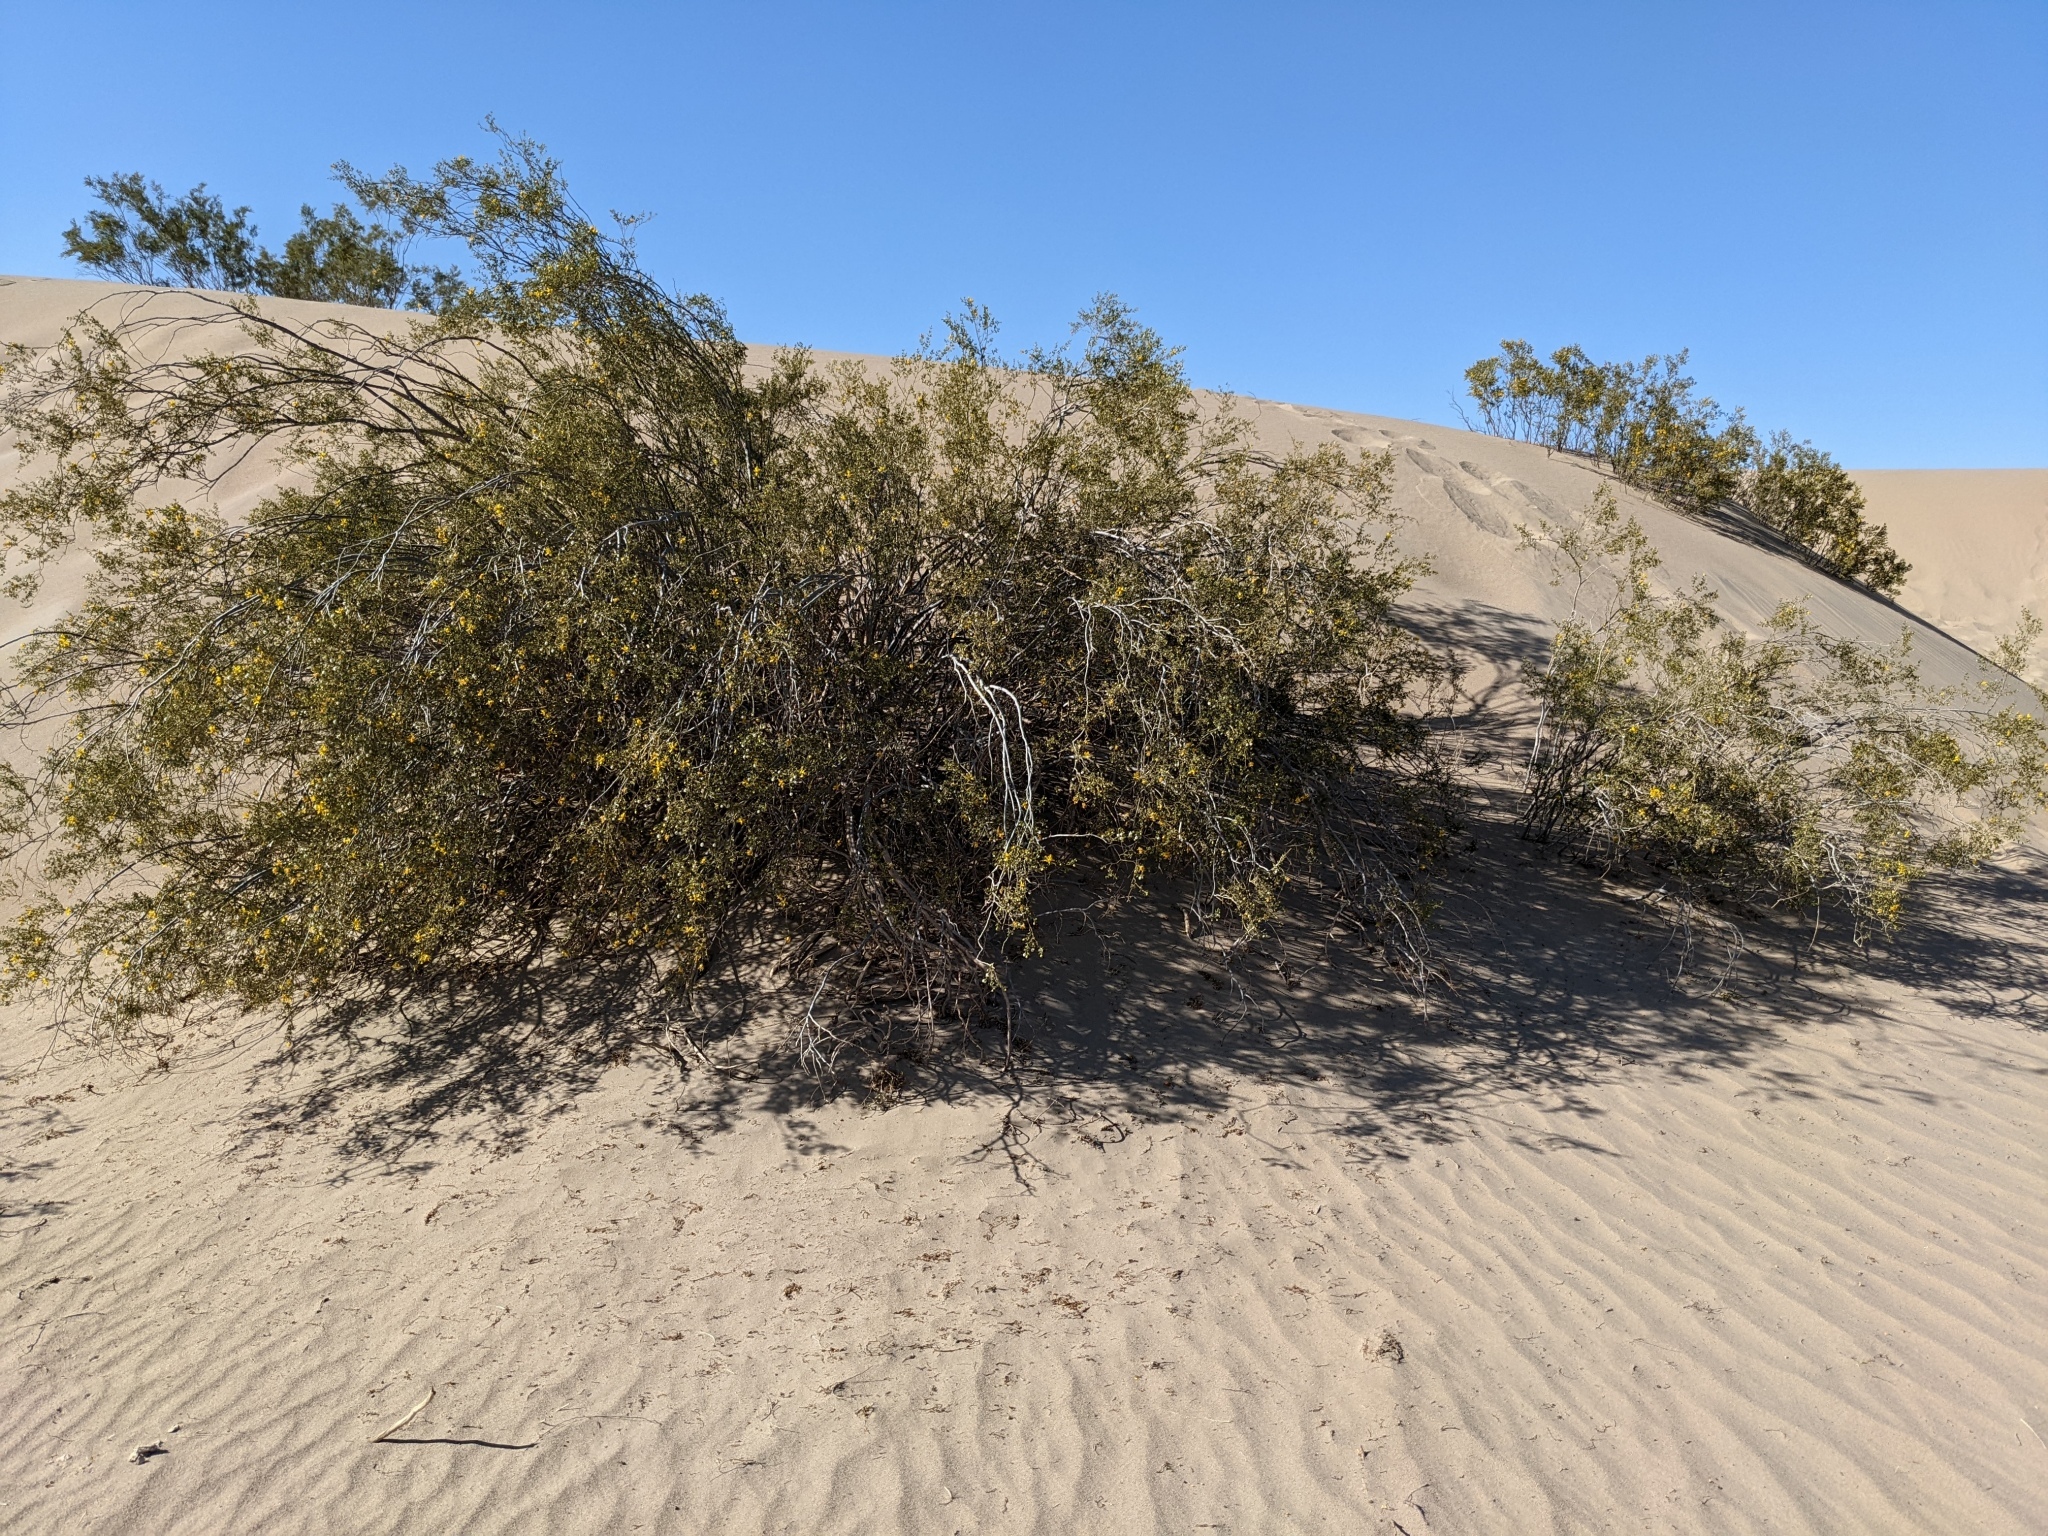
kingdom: Plantae
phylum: Tracheophyta
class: Magnoliopsida
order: Zygophyllales
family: Zygophyllaceae
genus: Larrea
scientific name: Larrea tridentata
